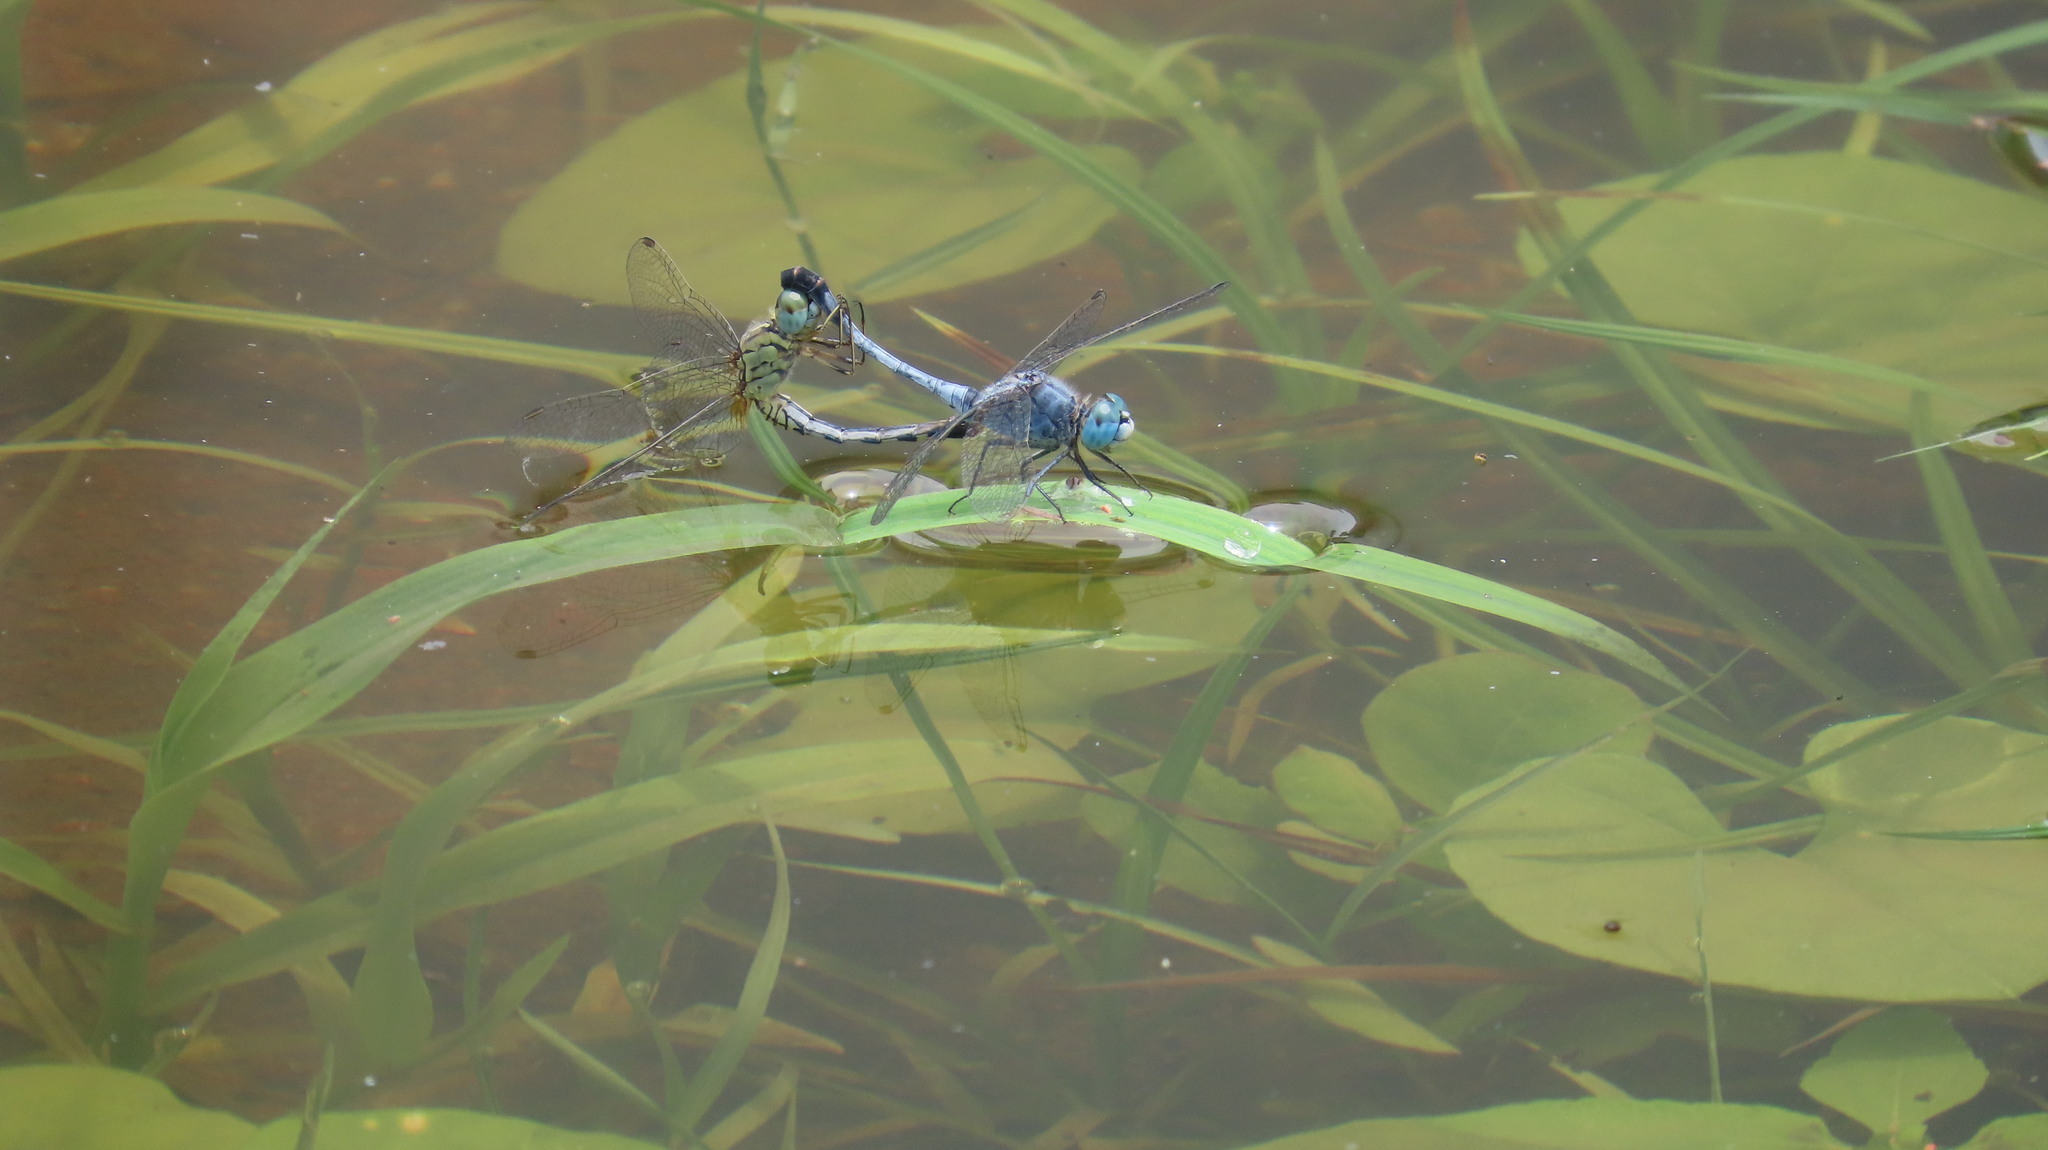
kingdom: Animalia
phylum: Arthropoda
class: Insecta
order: Odonata
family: Libellulidae
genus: Diplacodes
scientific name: Diplacodes trivialis
